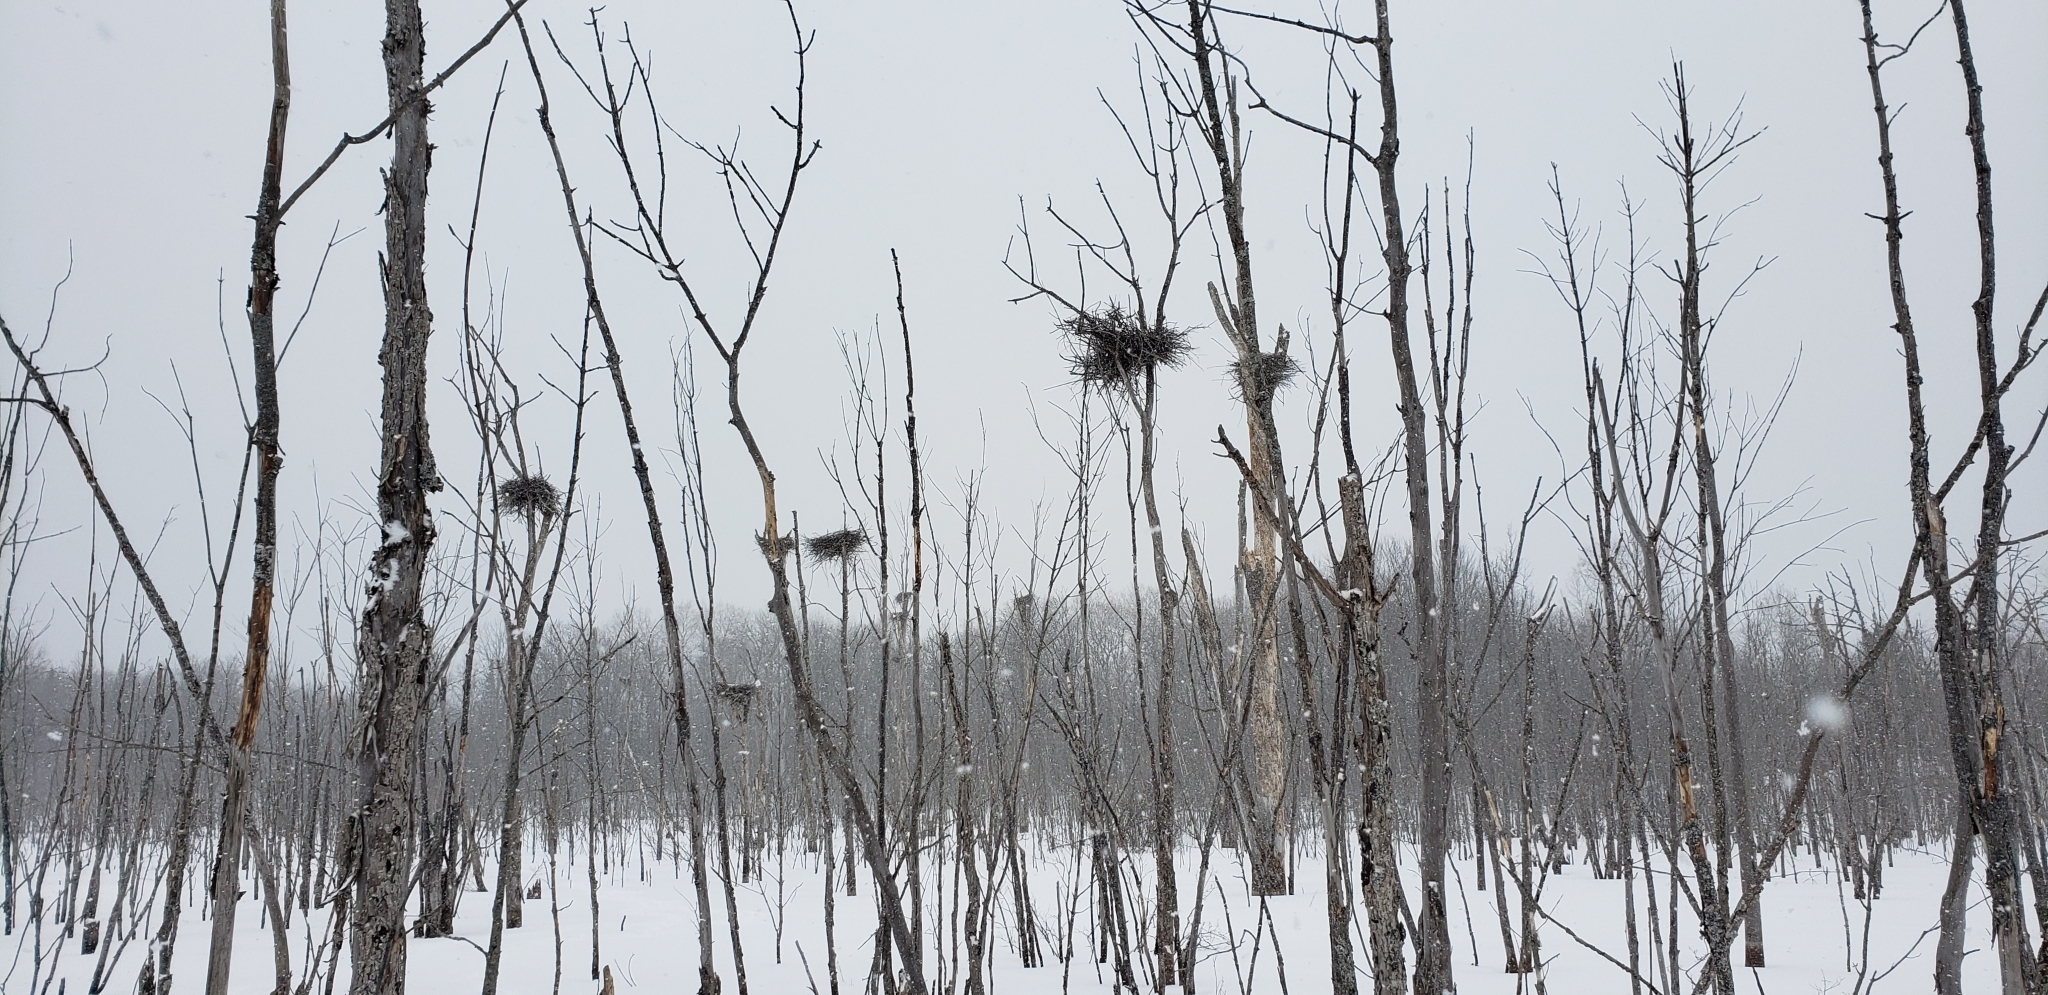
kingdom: Animalia
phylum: Chordata
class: Aves
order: Pelecaniformes
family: Ardeidae
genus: Ardea
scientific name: Ardea herodias
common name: Great blue heron
